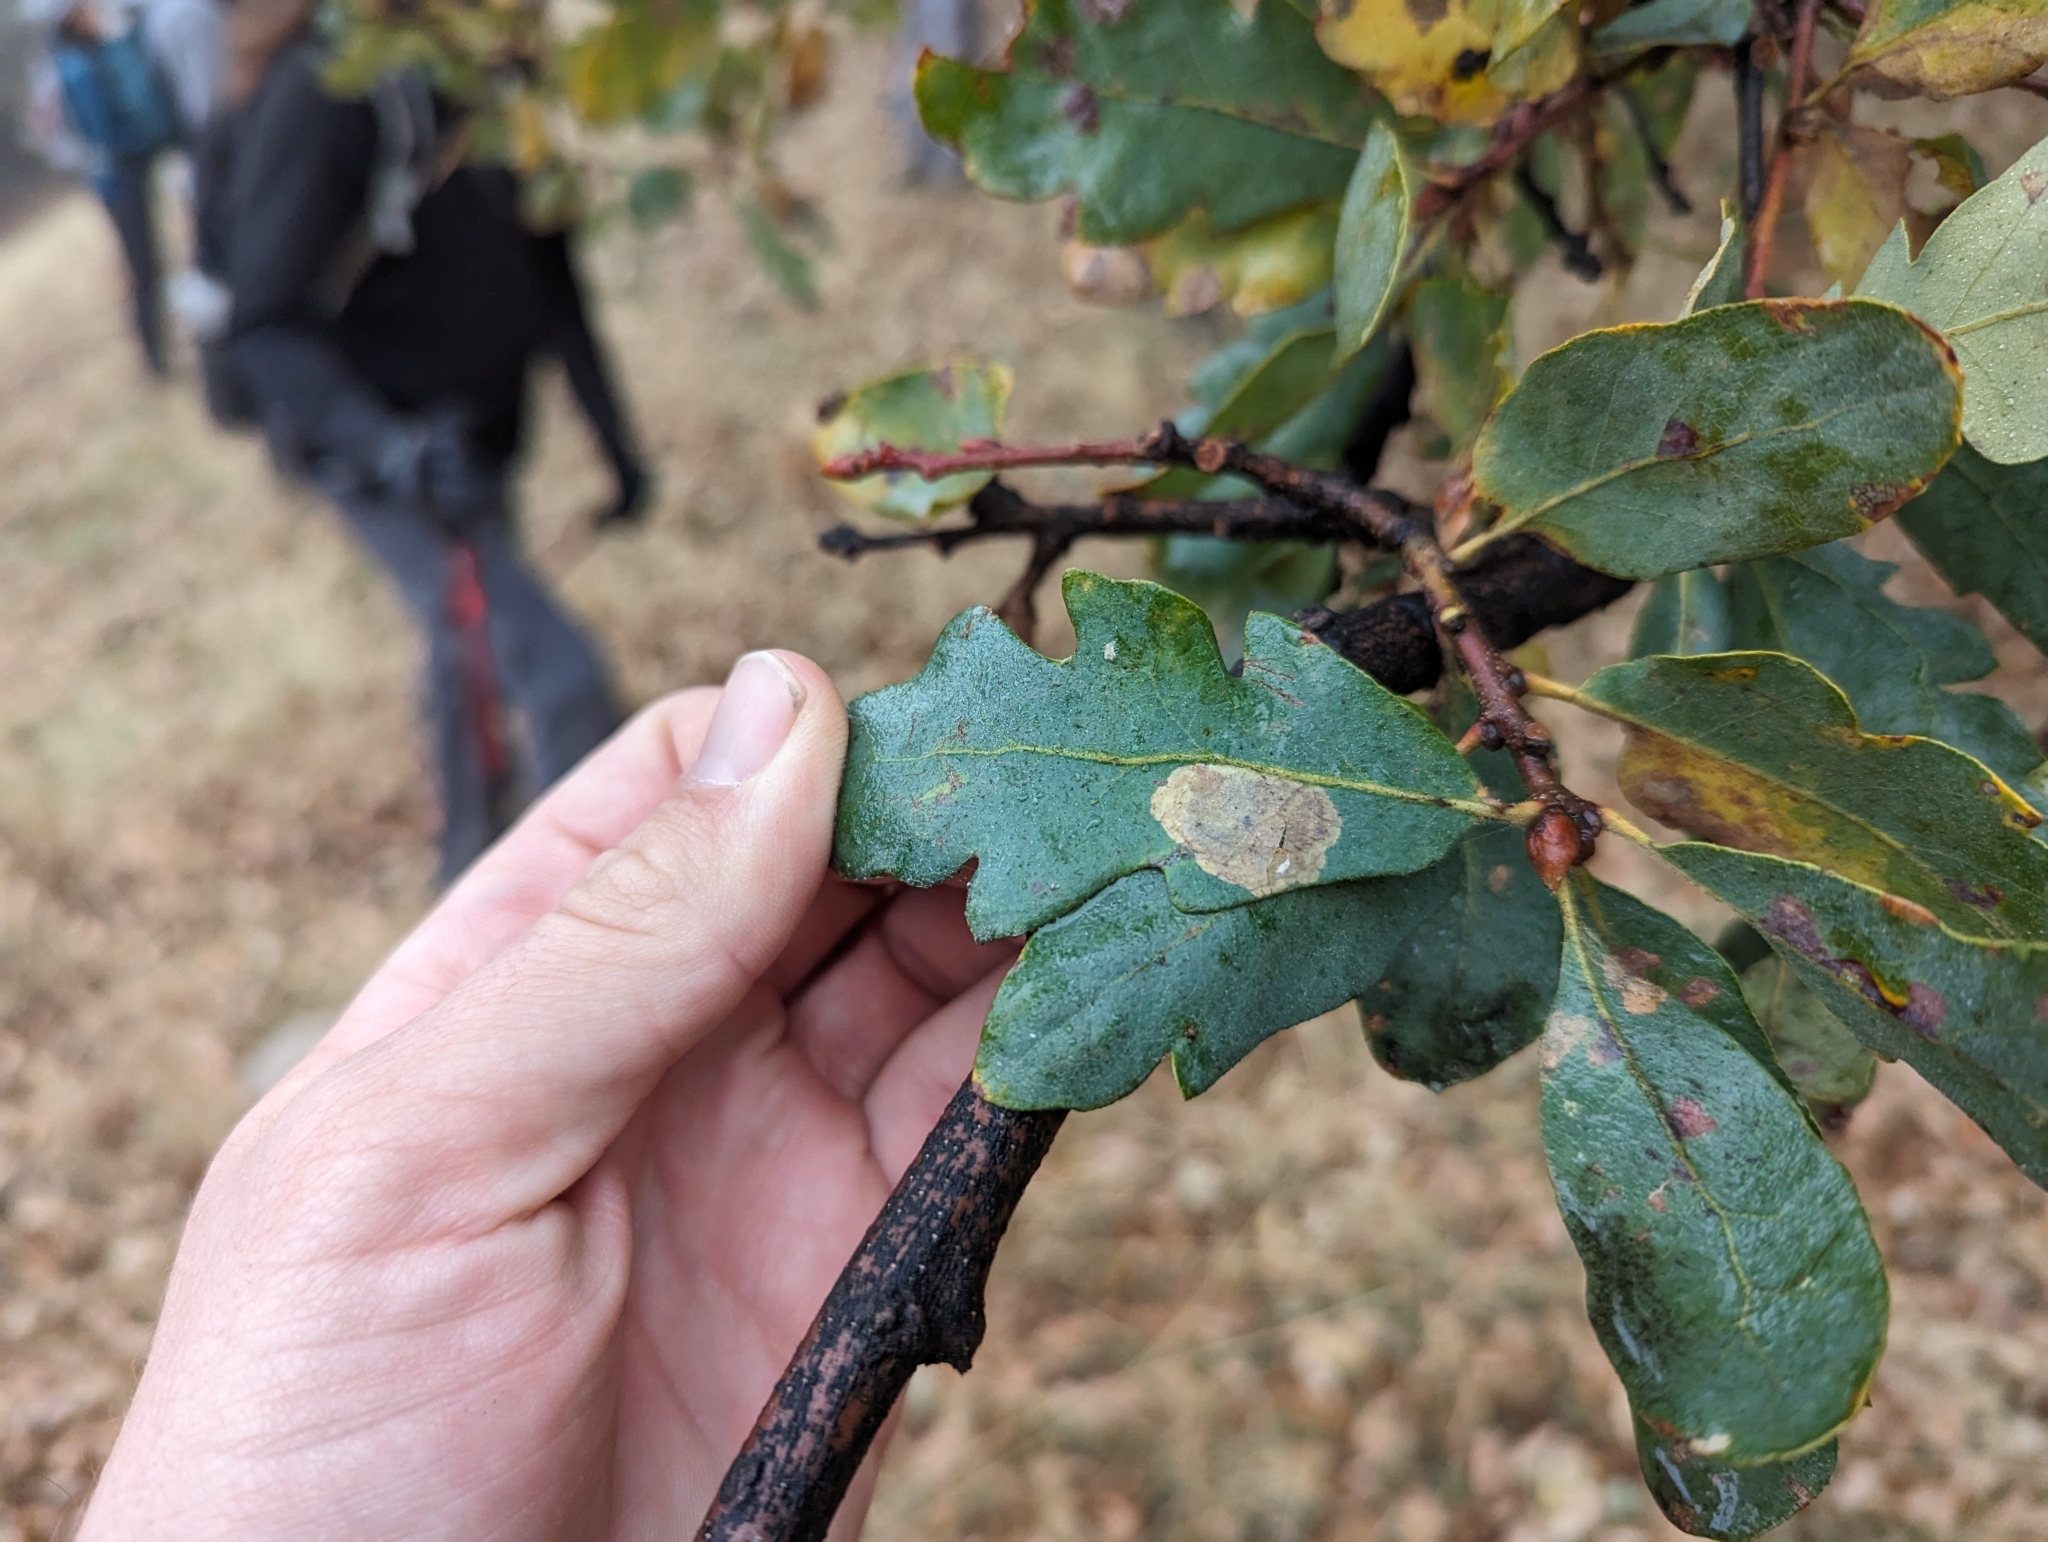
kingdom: Plantae
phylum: Tracheophyta
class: Magnoliopsida
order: Fagales
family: Fagaceae
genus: Quercus
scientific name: Quercus douglasii
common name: Blue oak
